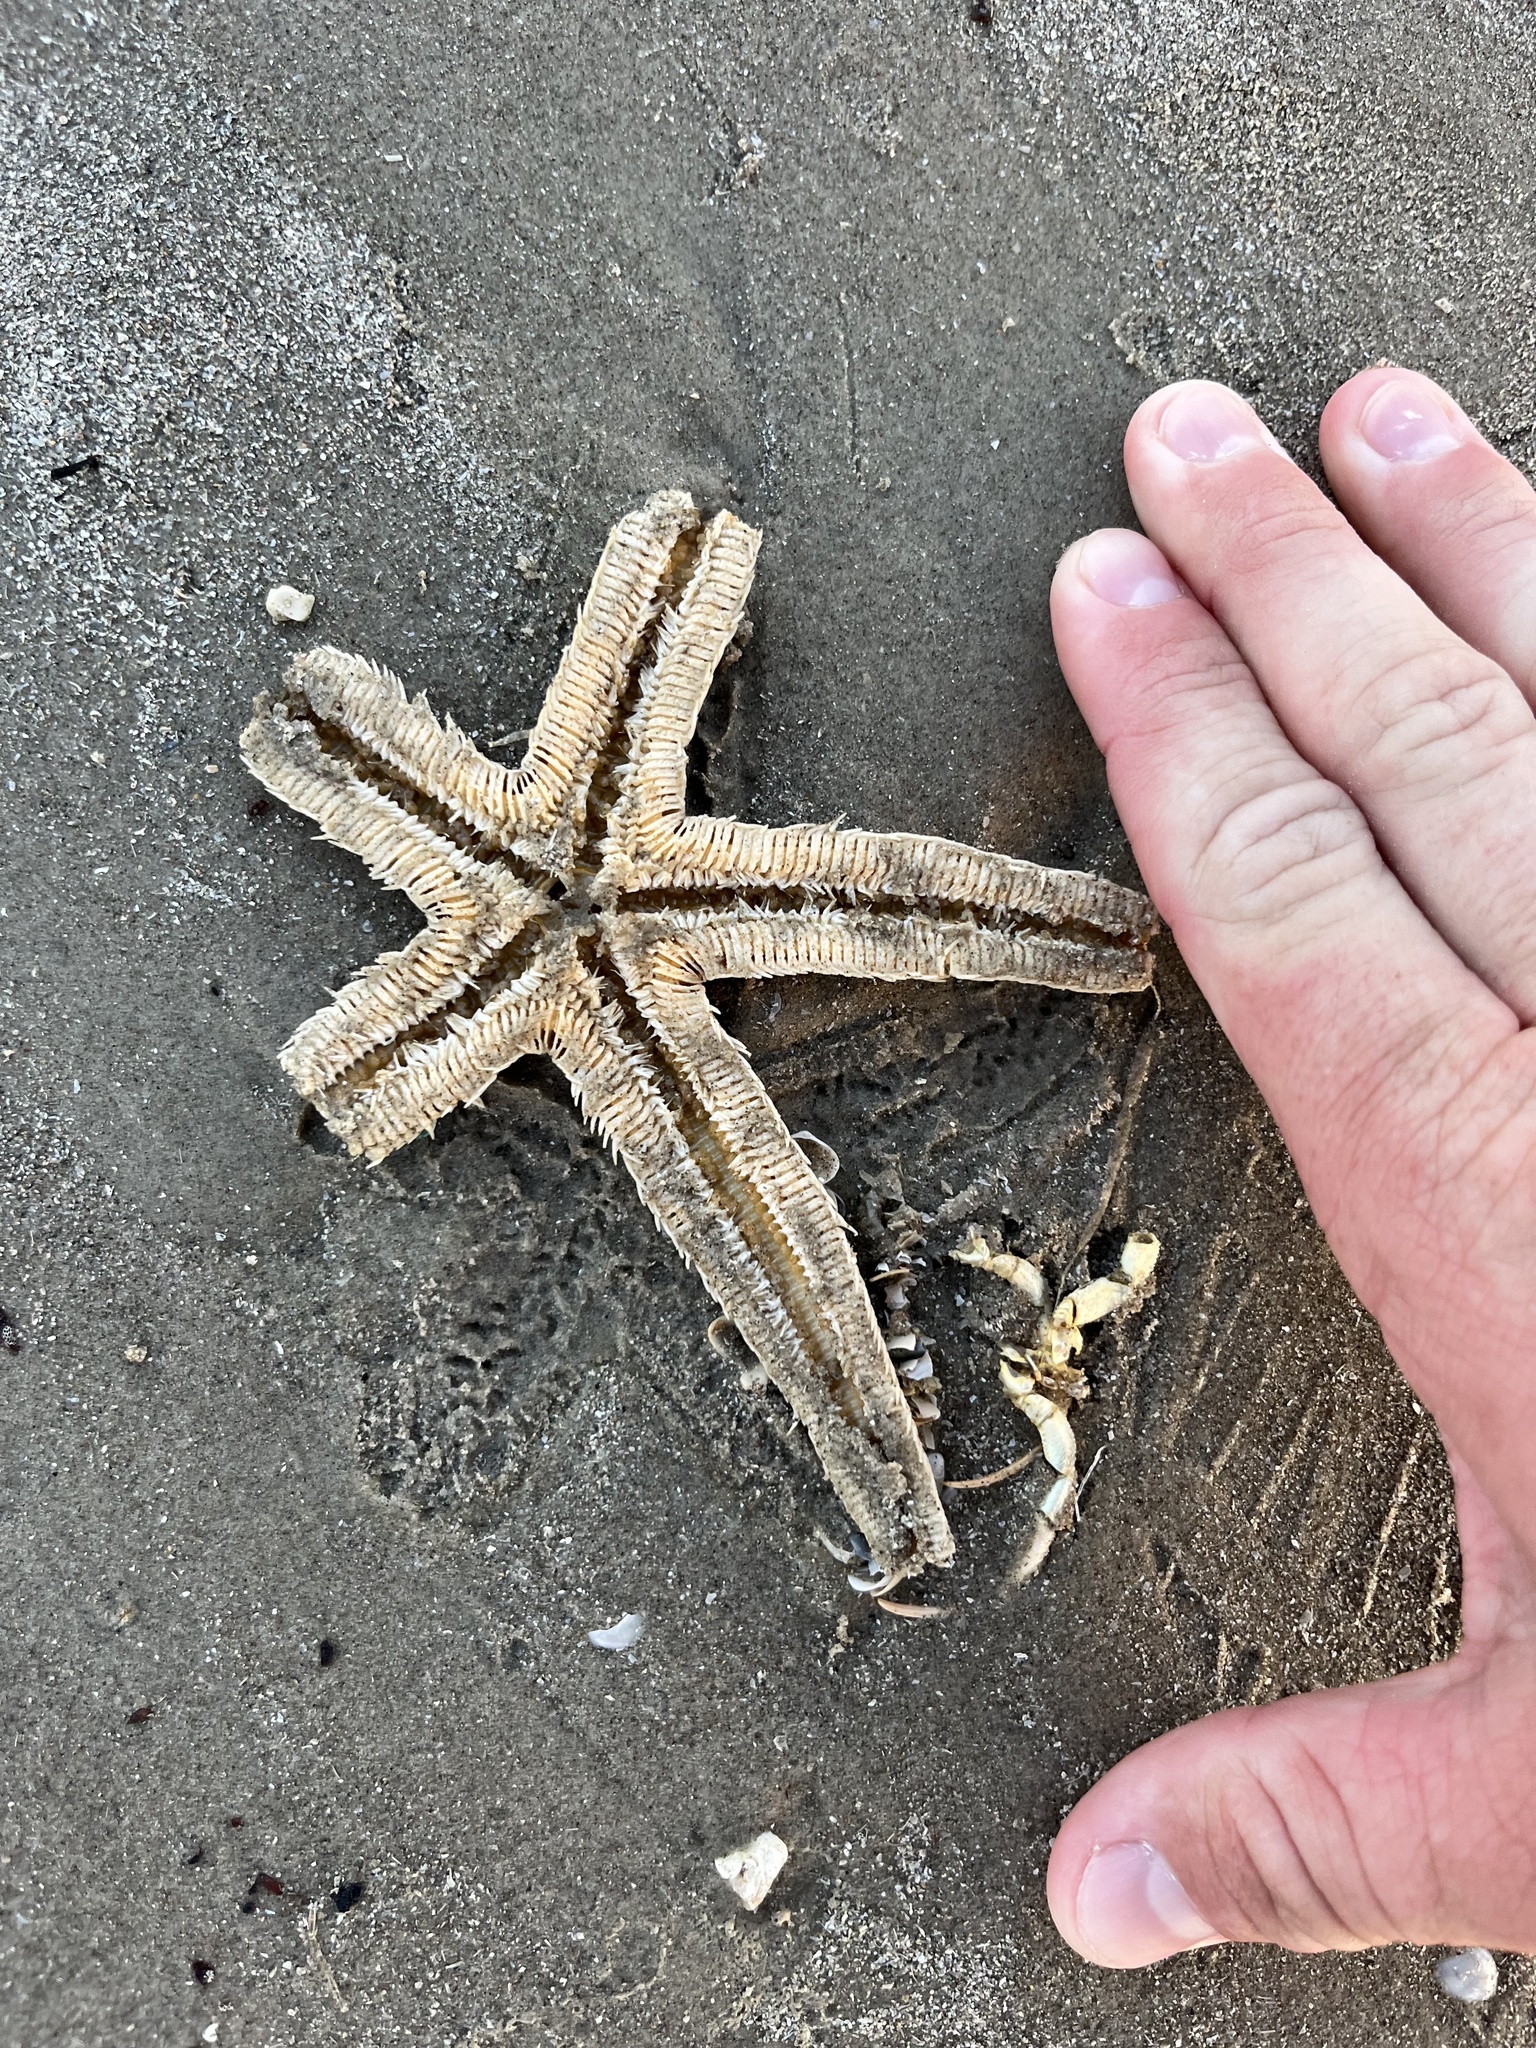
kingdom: Animalia
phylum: Echinodermata
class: Asteroidea
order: Paxillosida
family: Luidiidae
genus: Luidia
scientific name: Luidia clathrata
